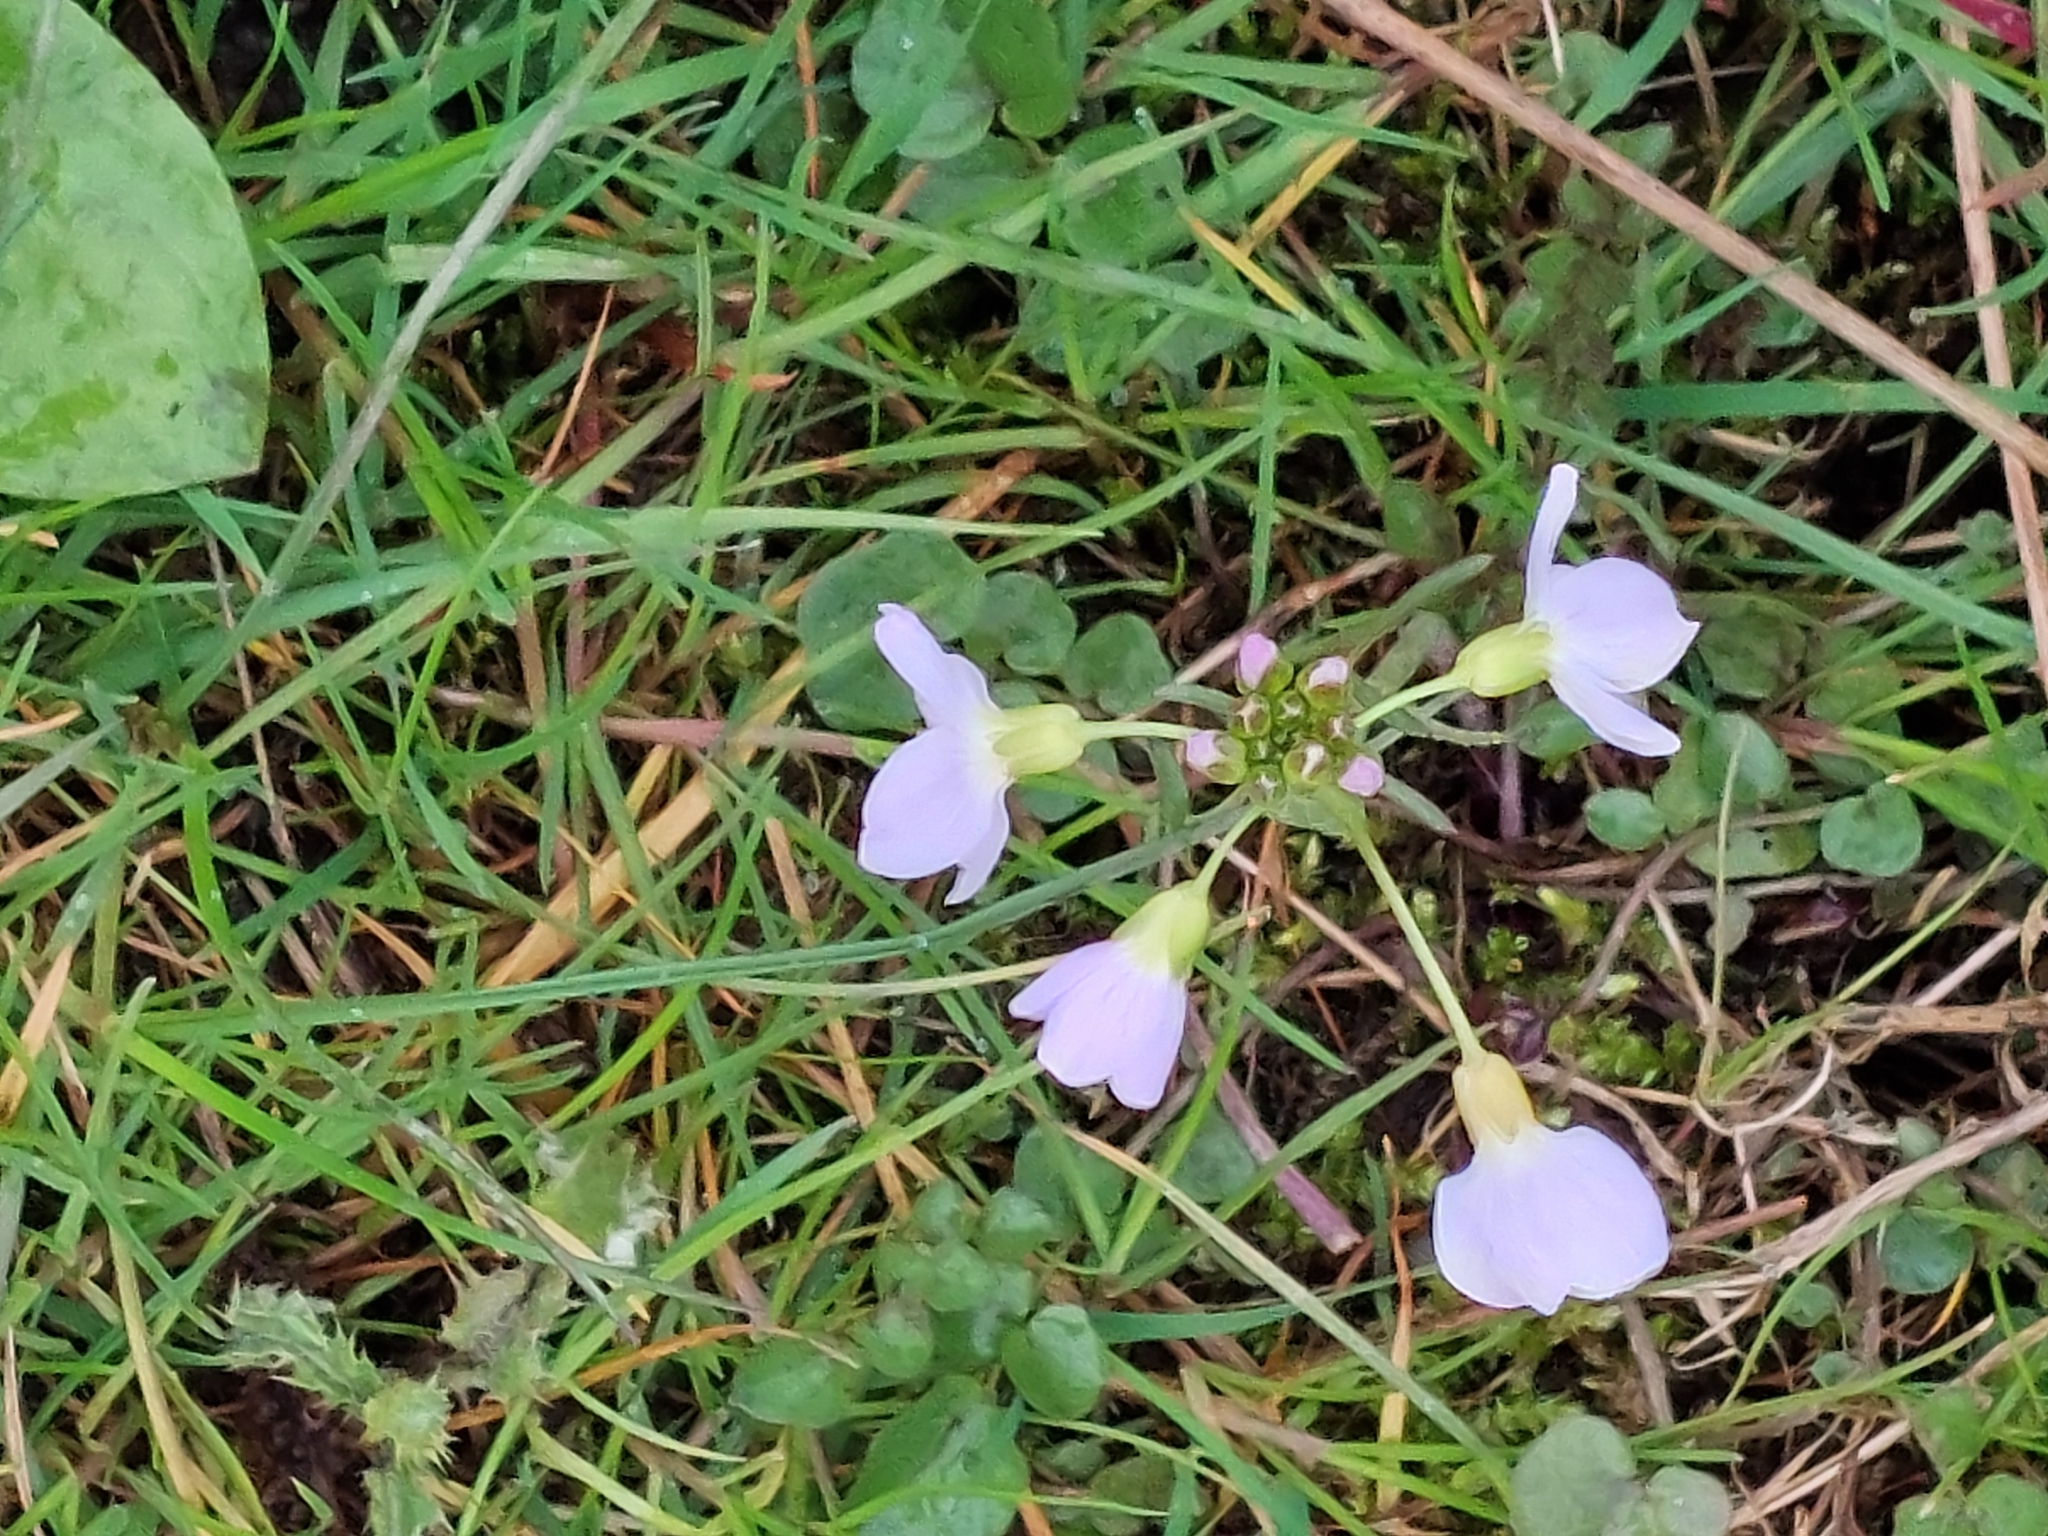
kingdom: Plantae
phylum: Tracheophyta
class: Magnoliopsida
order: Brassicales
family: Brassicaceae
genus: Cardamine
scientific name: Cardamine pratensis
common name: Cuckoo flower
